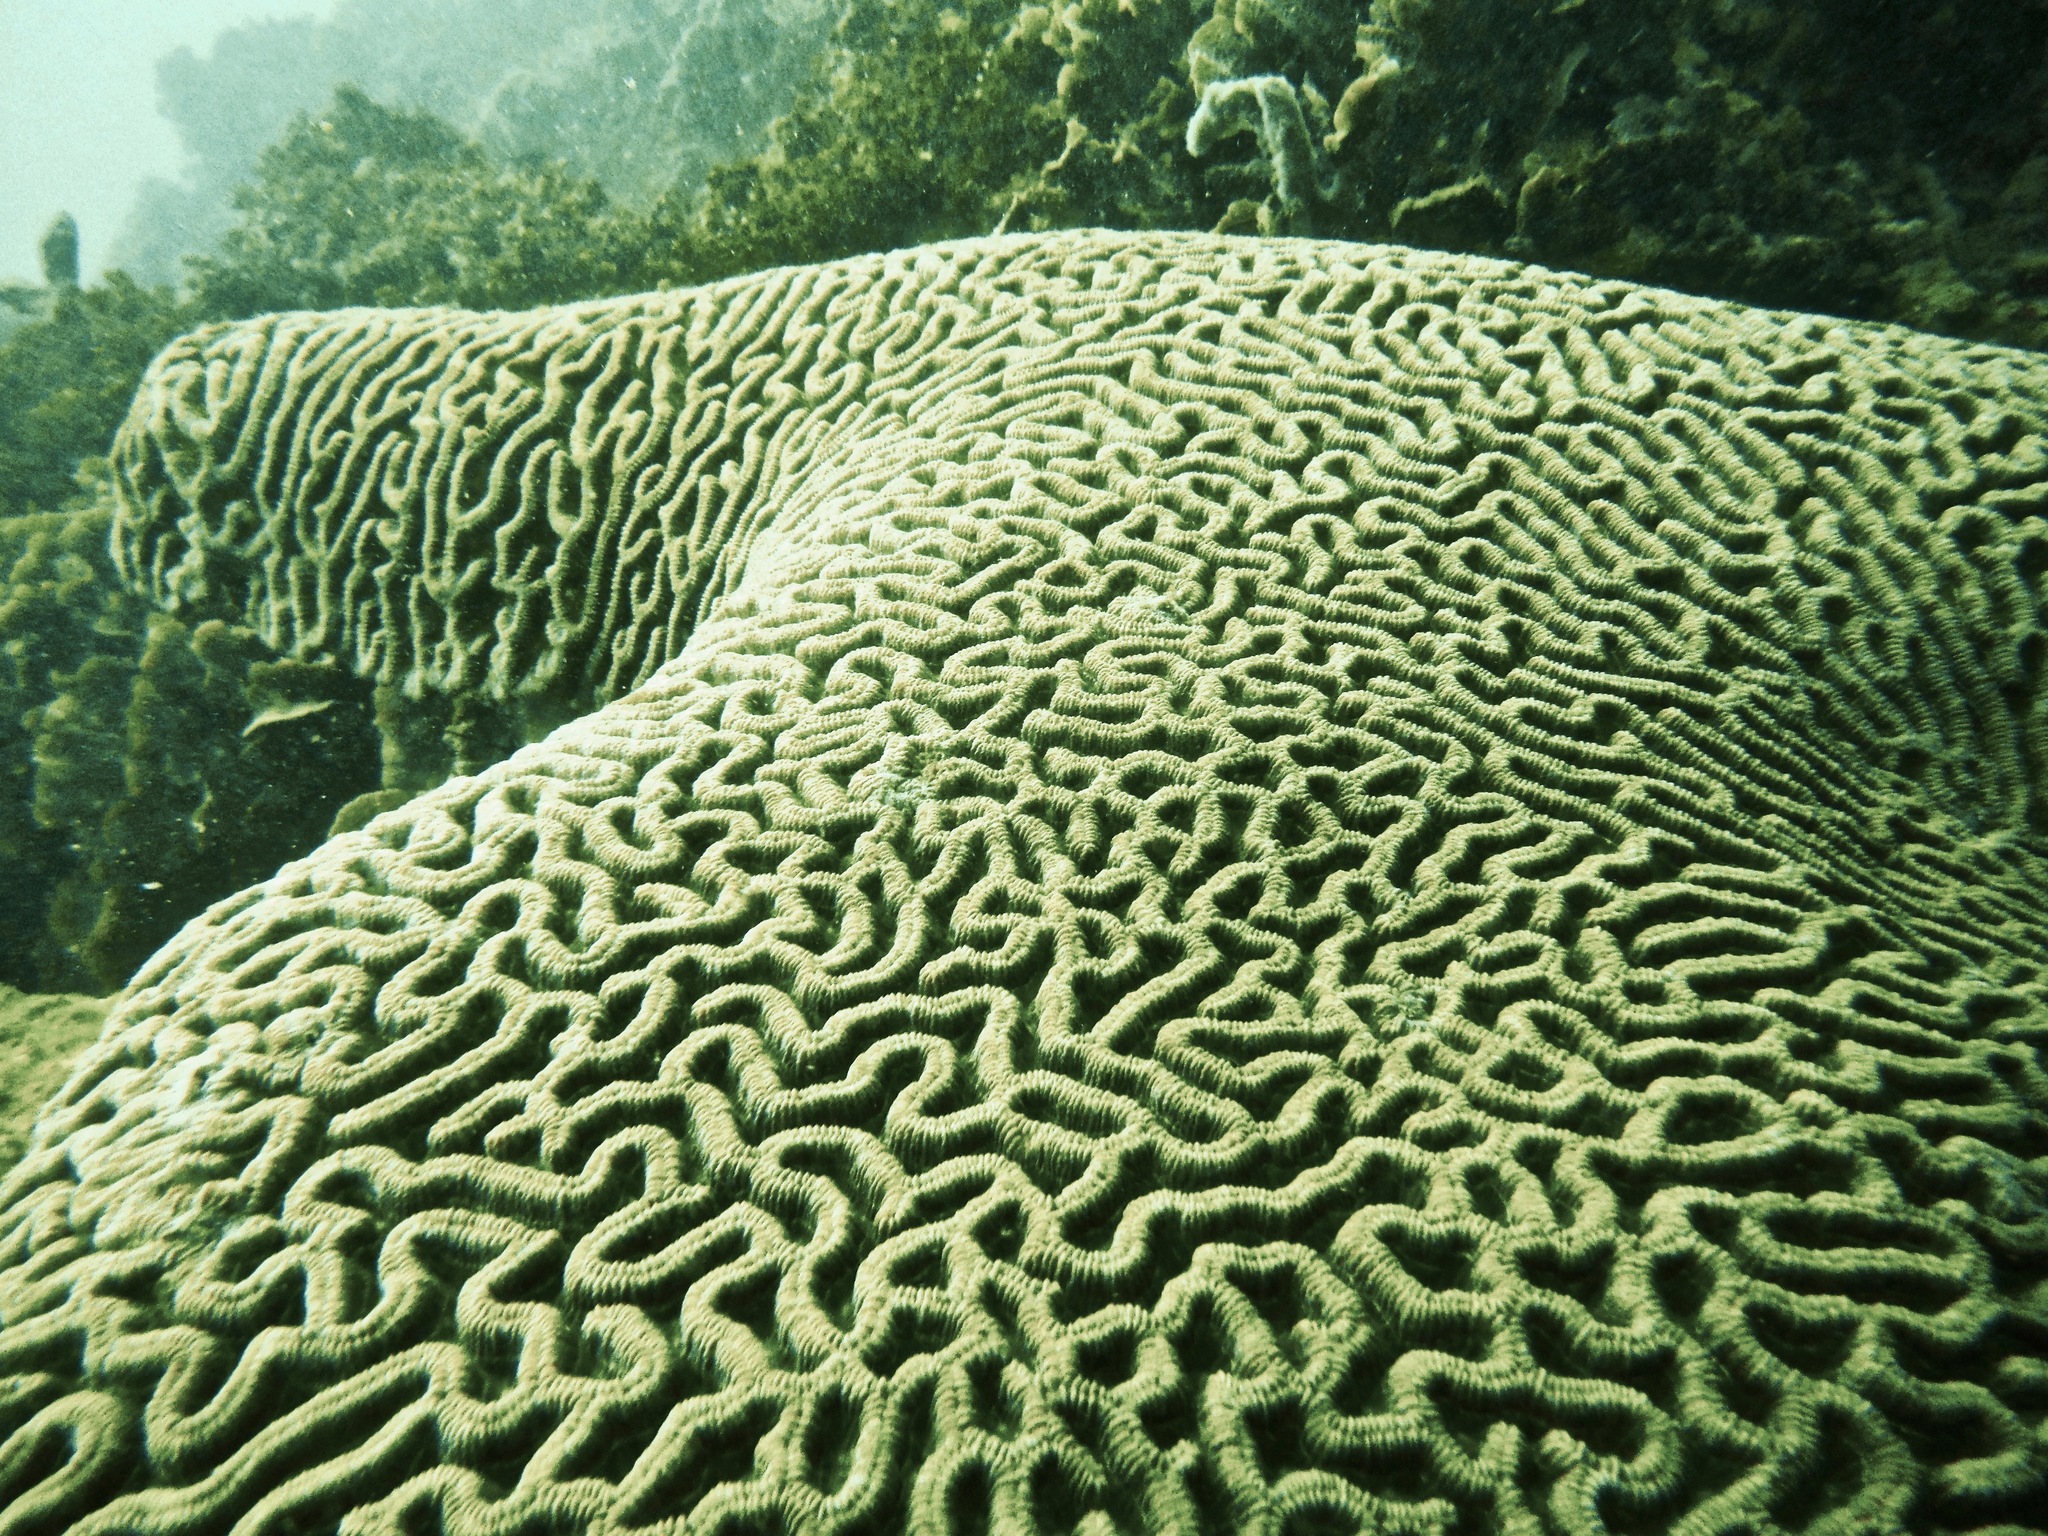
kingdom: Animalia
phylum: Cnidaria
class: Anthozoa
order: Scleractinia
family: Faviidae
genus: Colpophyllia
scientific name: Colpophyllia natans
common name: Boulder brain coral
